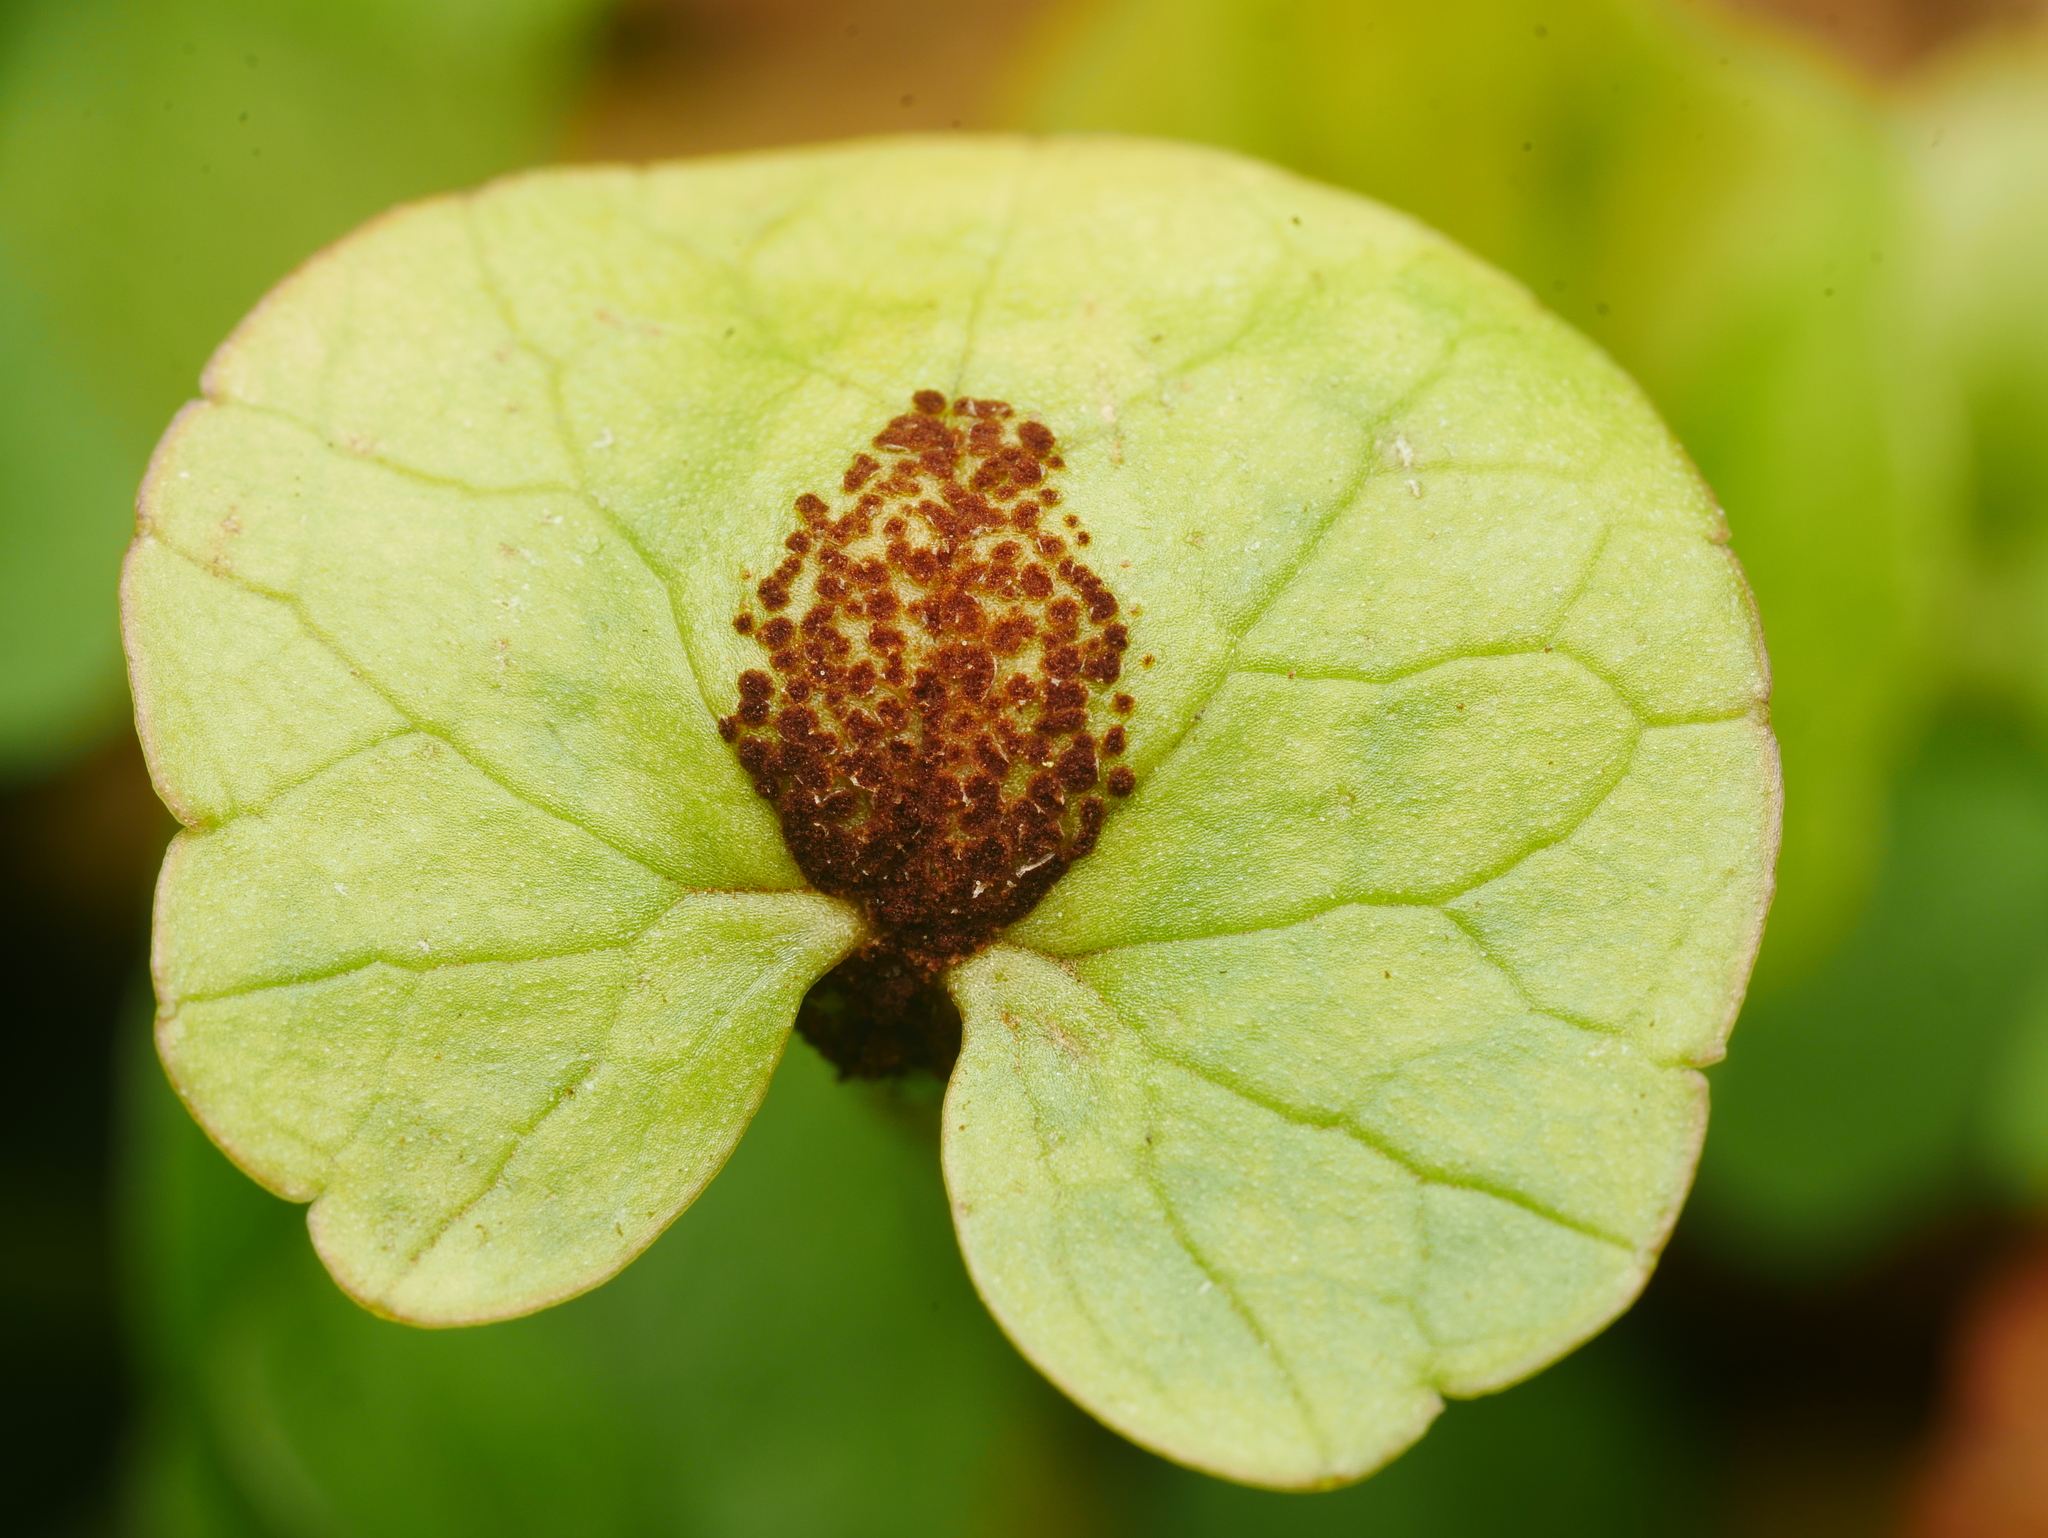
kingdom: Fungi
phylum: Basidiomycota
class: Pucciniomycetes
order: Pucciniales
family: Pucciniaceae
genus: Uromyces
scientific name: Uromyces ficariae
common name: Bitter chocolate rust
